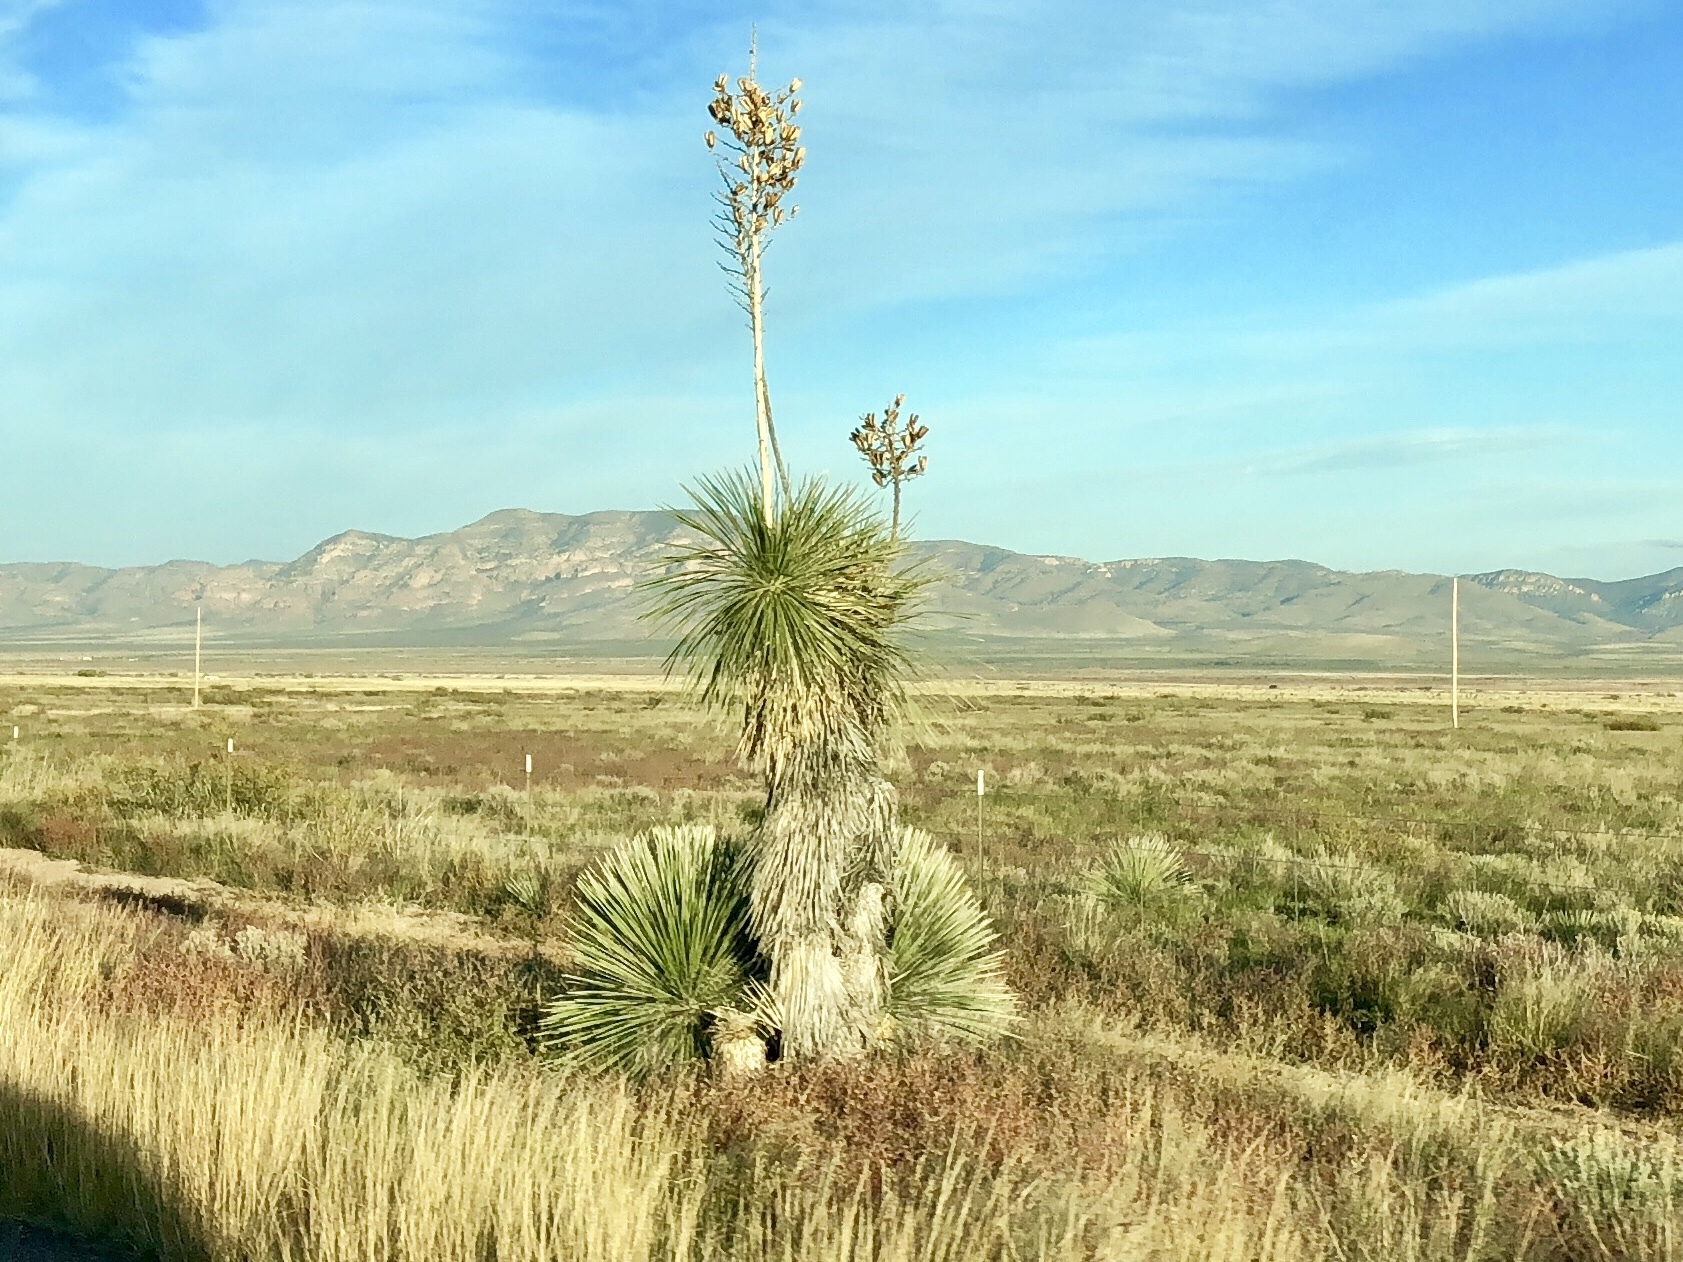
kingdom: Plantae
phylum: Tracheophyta
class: Liliopsida
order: Asparagales
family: Asparagaceae
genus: Yucca
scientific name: Yucca elata
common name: Palmella
